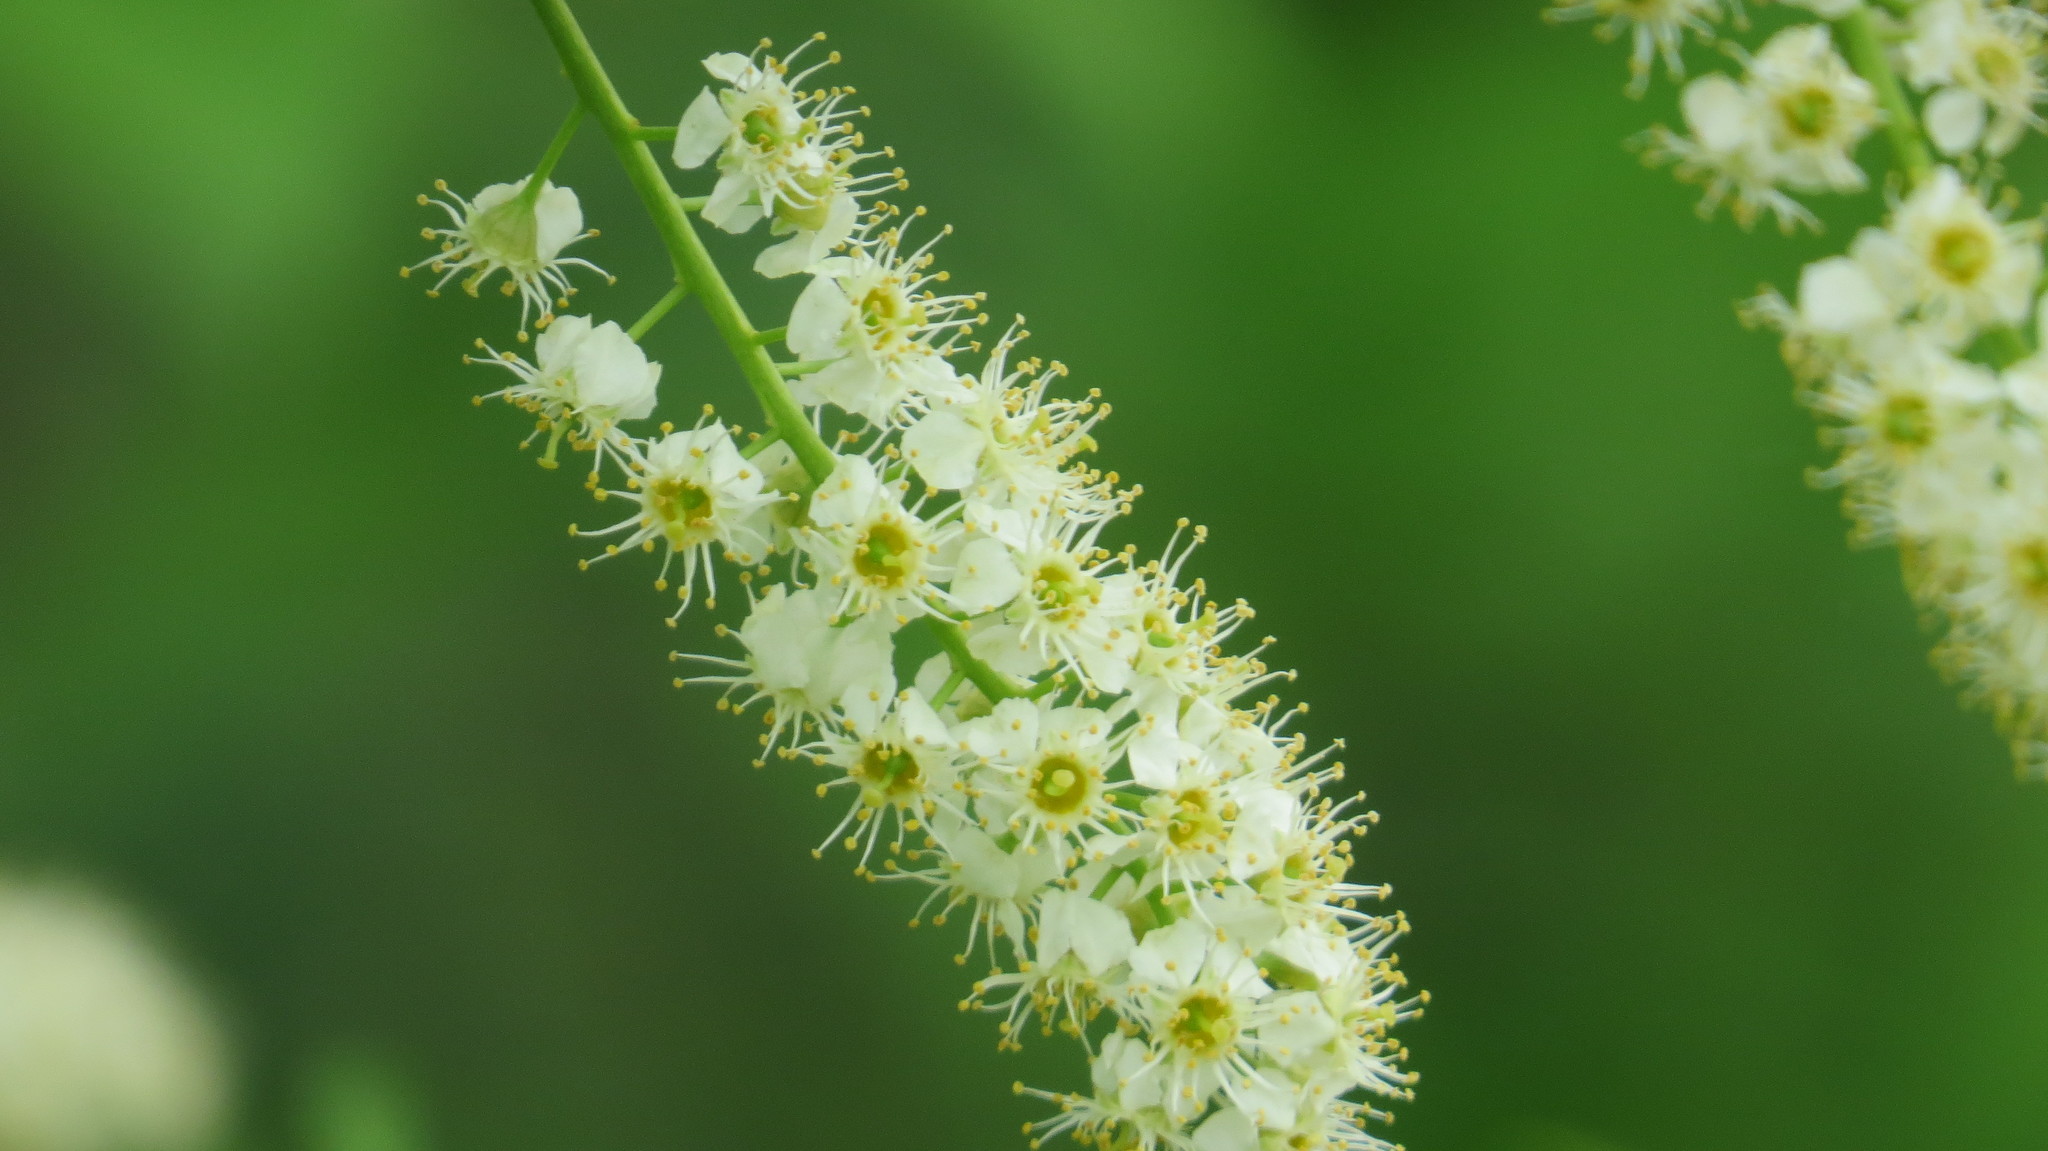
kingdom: Plantae
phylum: Tracheophyta
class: Magnoliopsida
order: Rosales
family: Rosaceae
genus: Prunus
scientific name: Prunus virginiana
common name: Chokecherry
